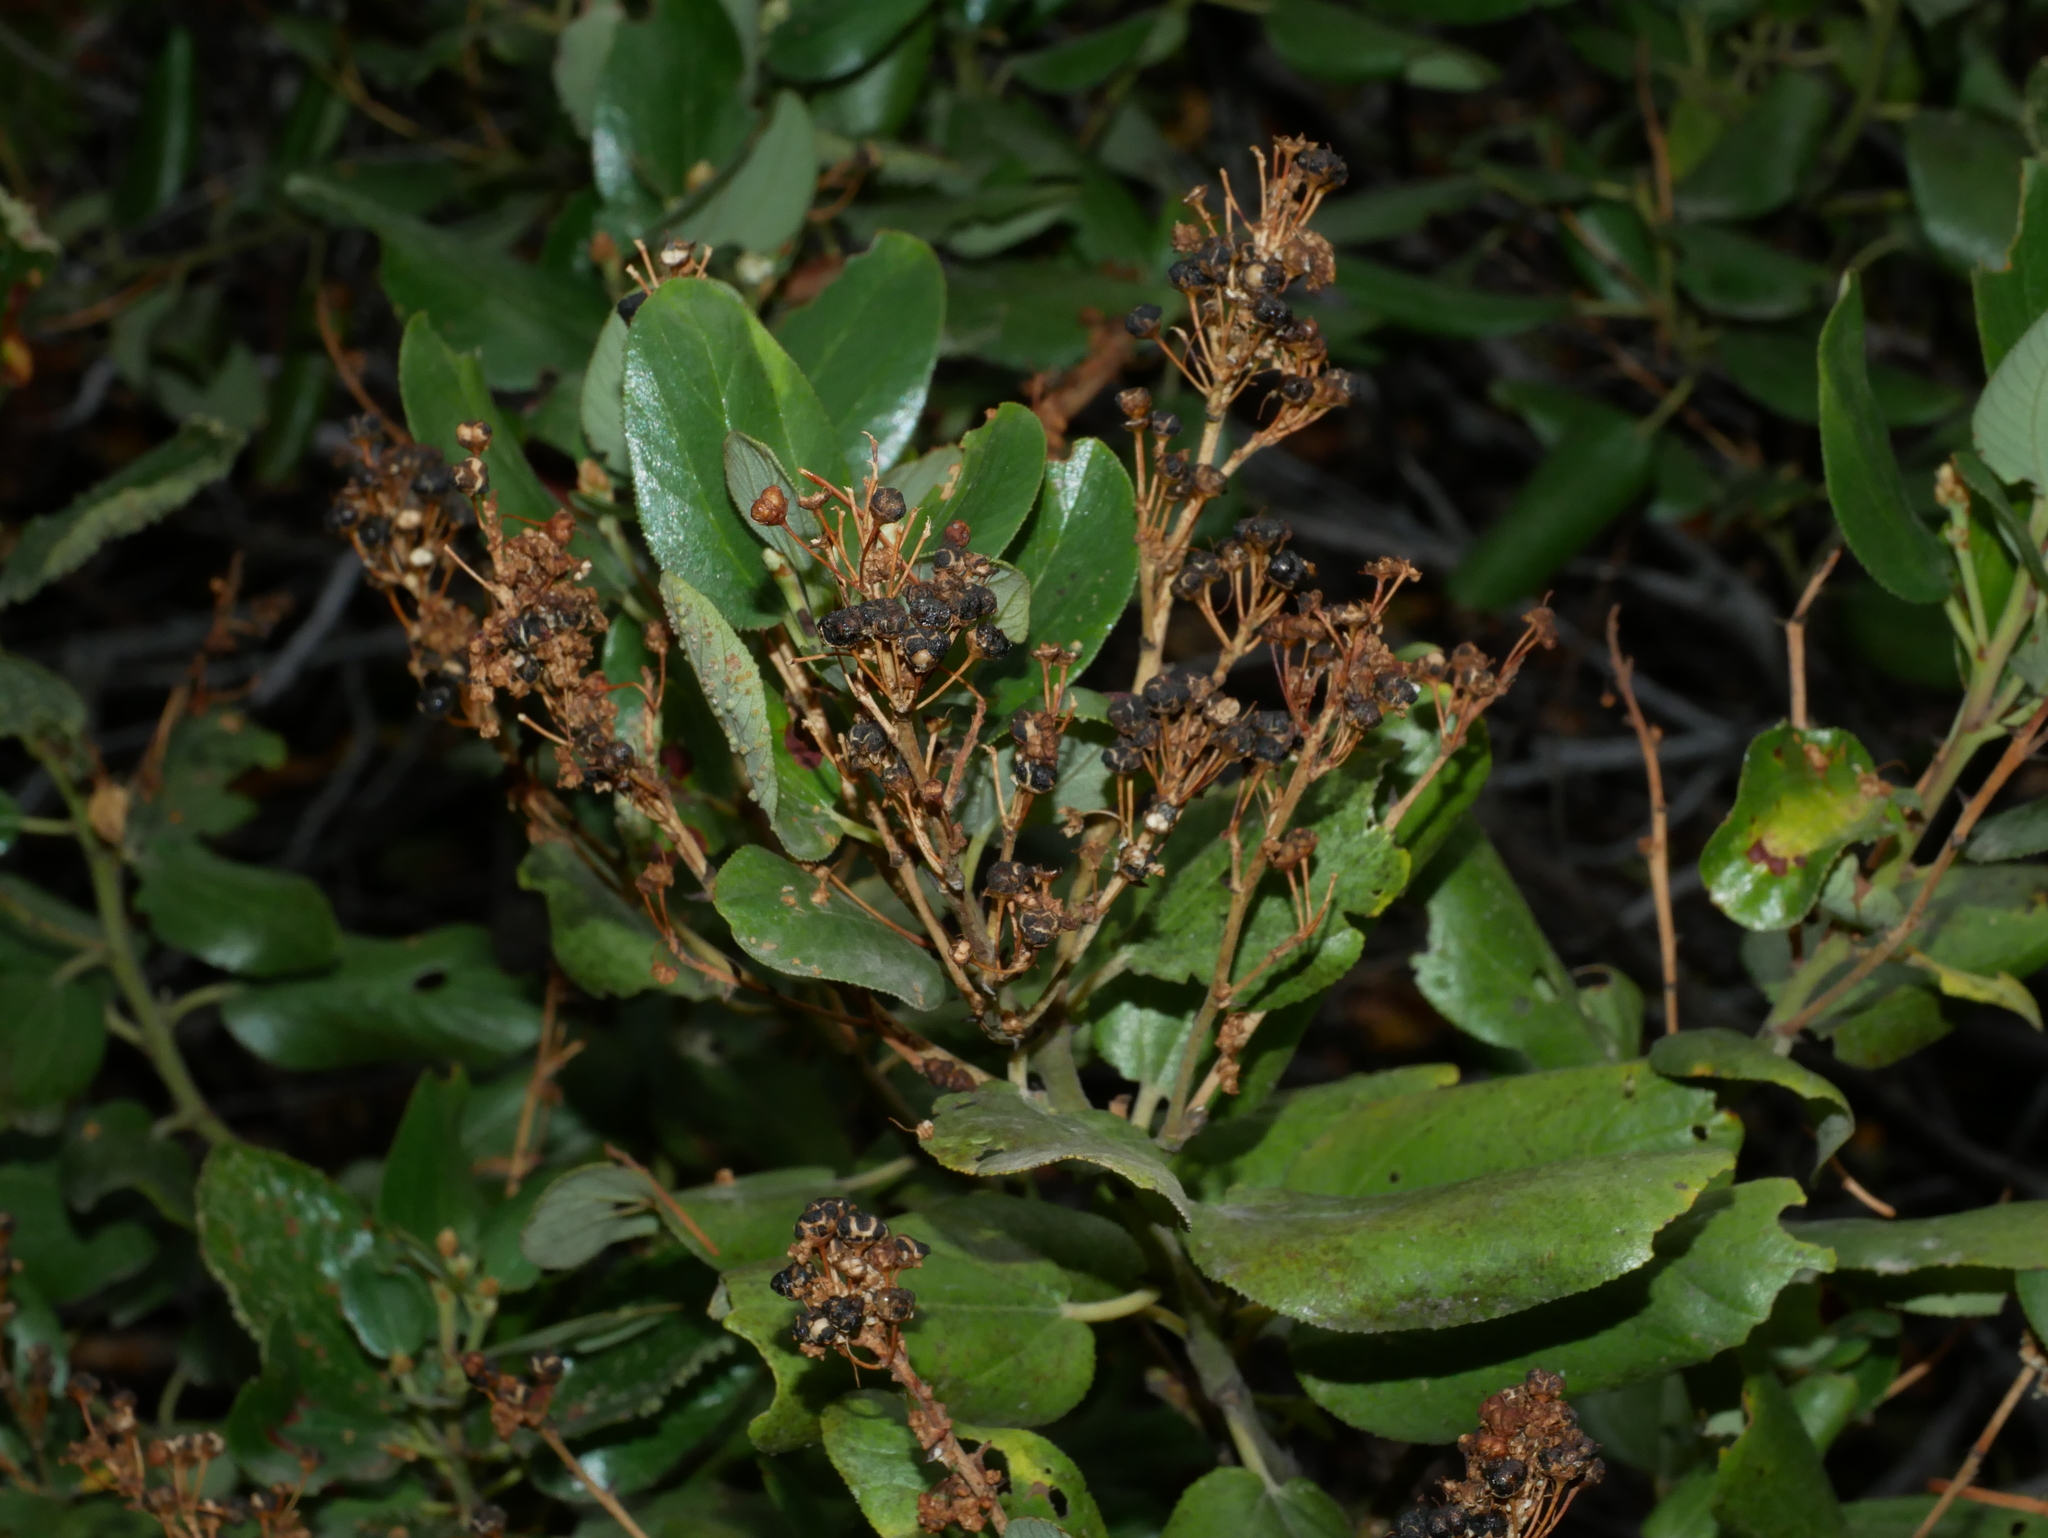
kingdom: Plantae
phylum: Tracheophyta
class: Magnoliopsida
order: Rosales
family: Rhamnaceae
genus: Ceanothus
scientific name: Ceanothus velutinus
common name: Snowbrush
